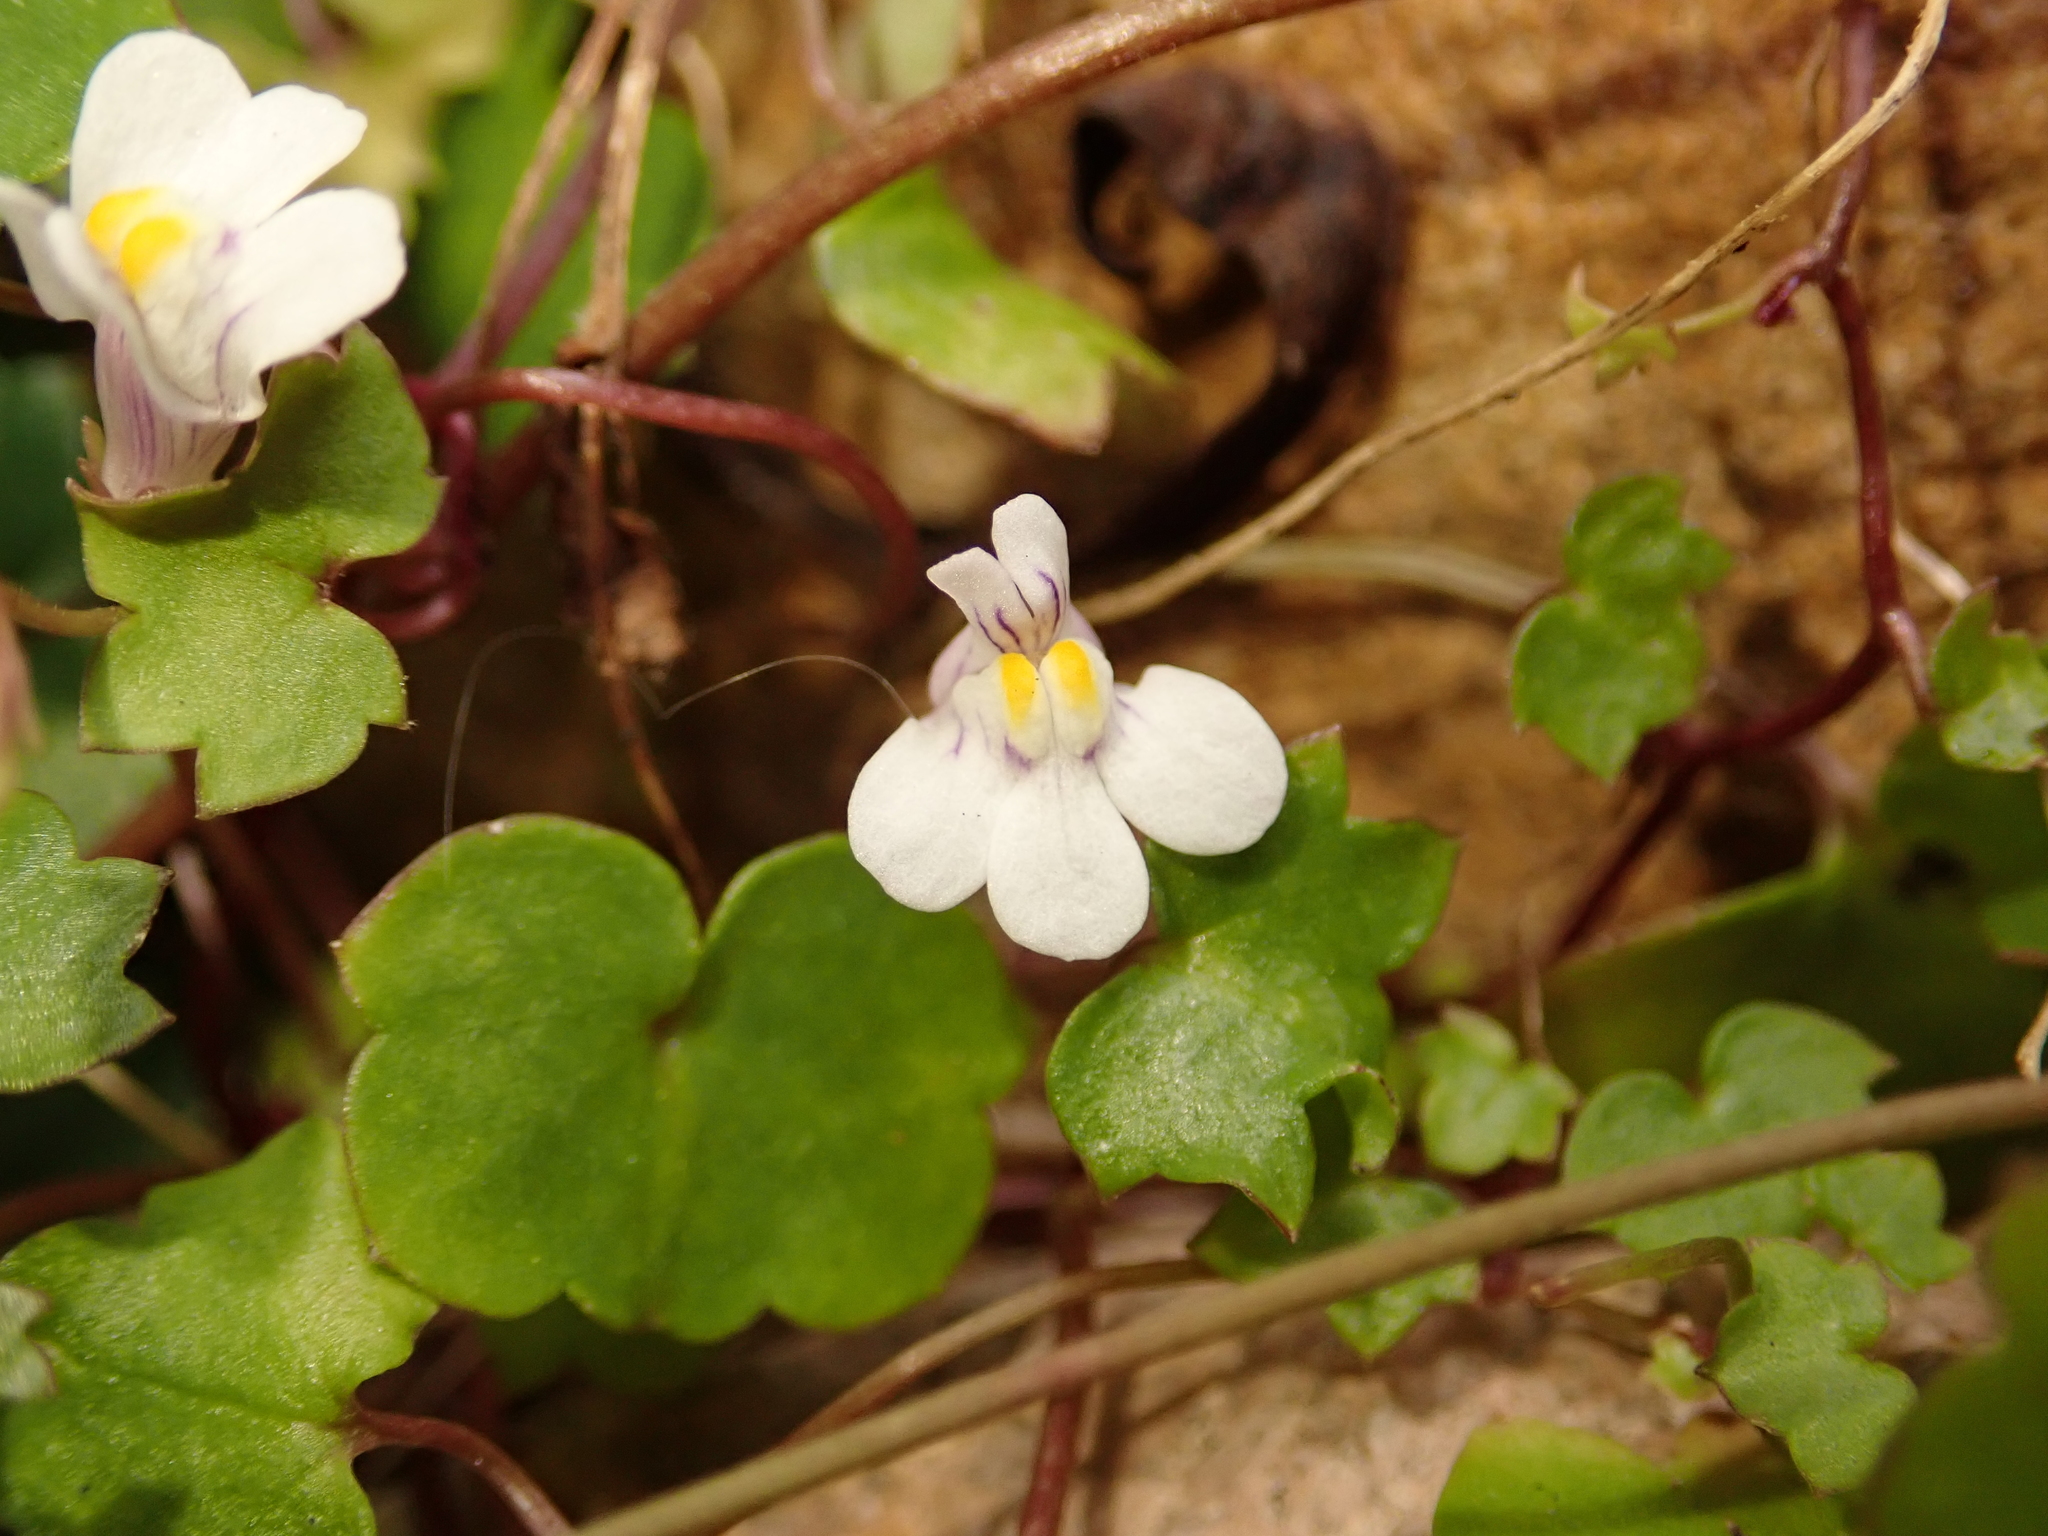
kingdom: Plantae
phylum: Tracheophyta
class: Magnoliopsida
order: Lamiales
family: Plantaginaceae
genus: Cymbalaria
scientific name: Cymbalaria muralis
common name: Ivy-leaved toadflax
